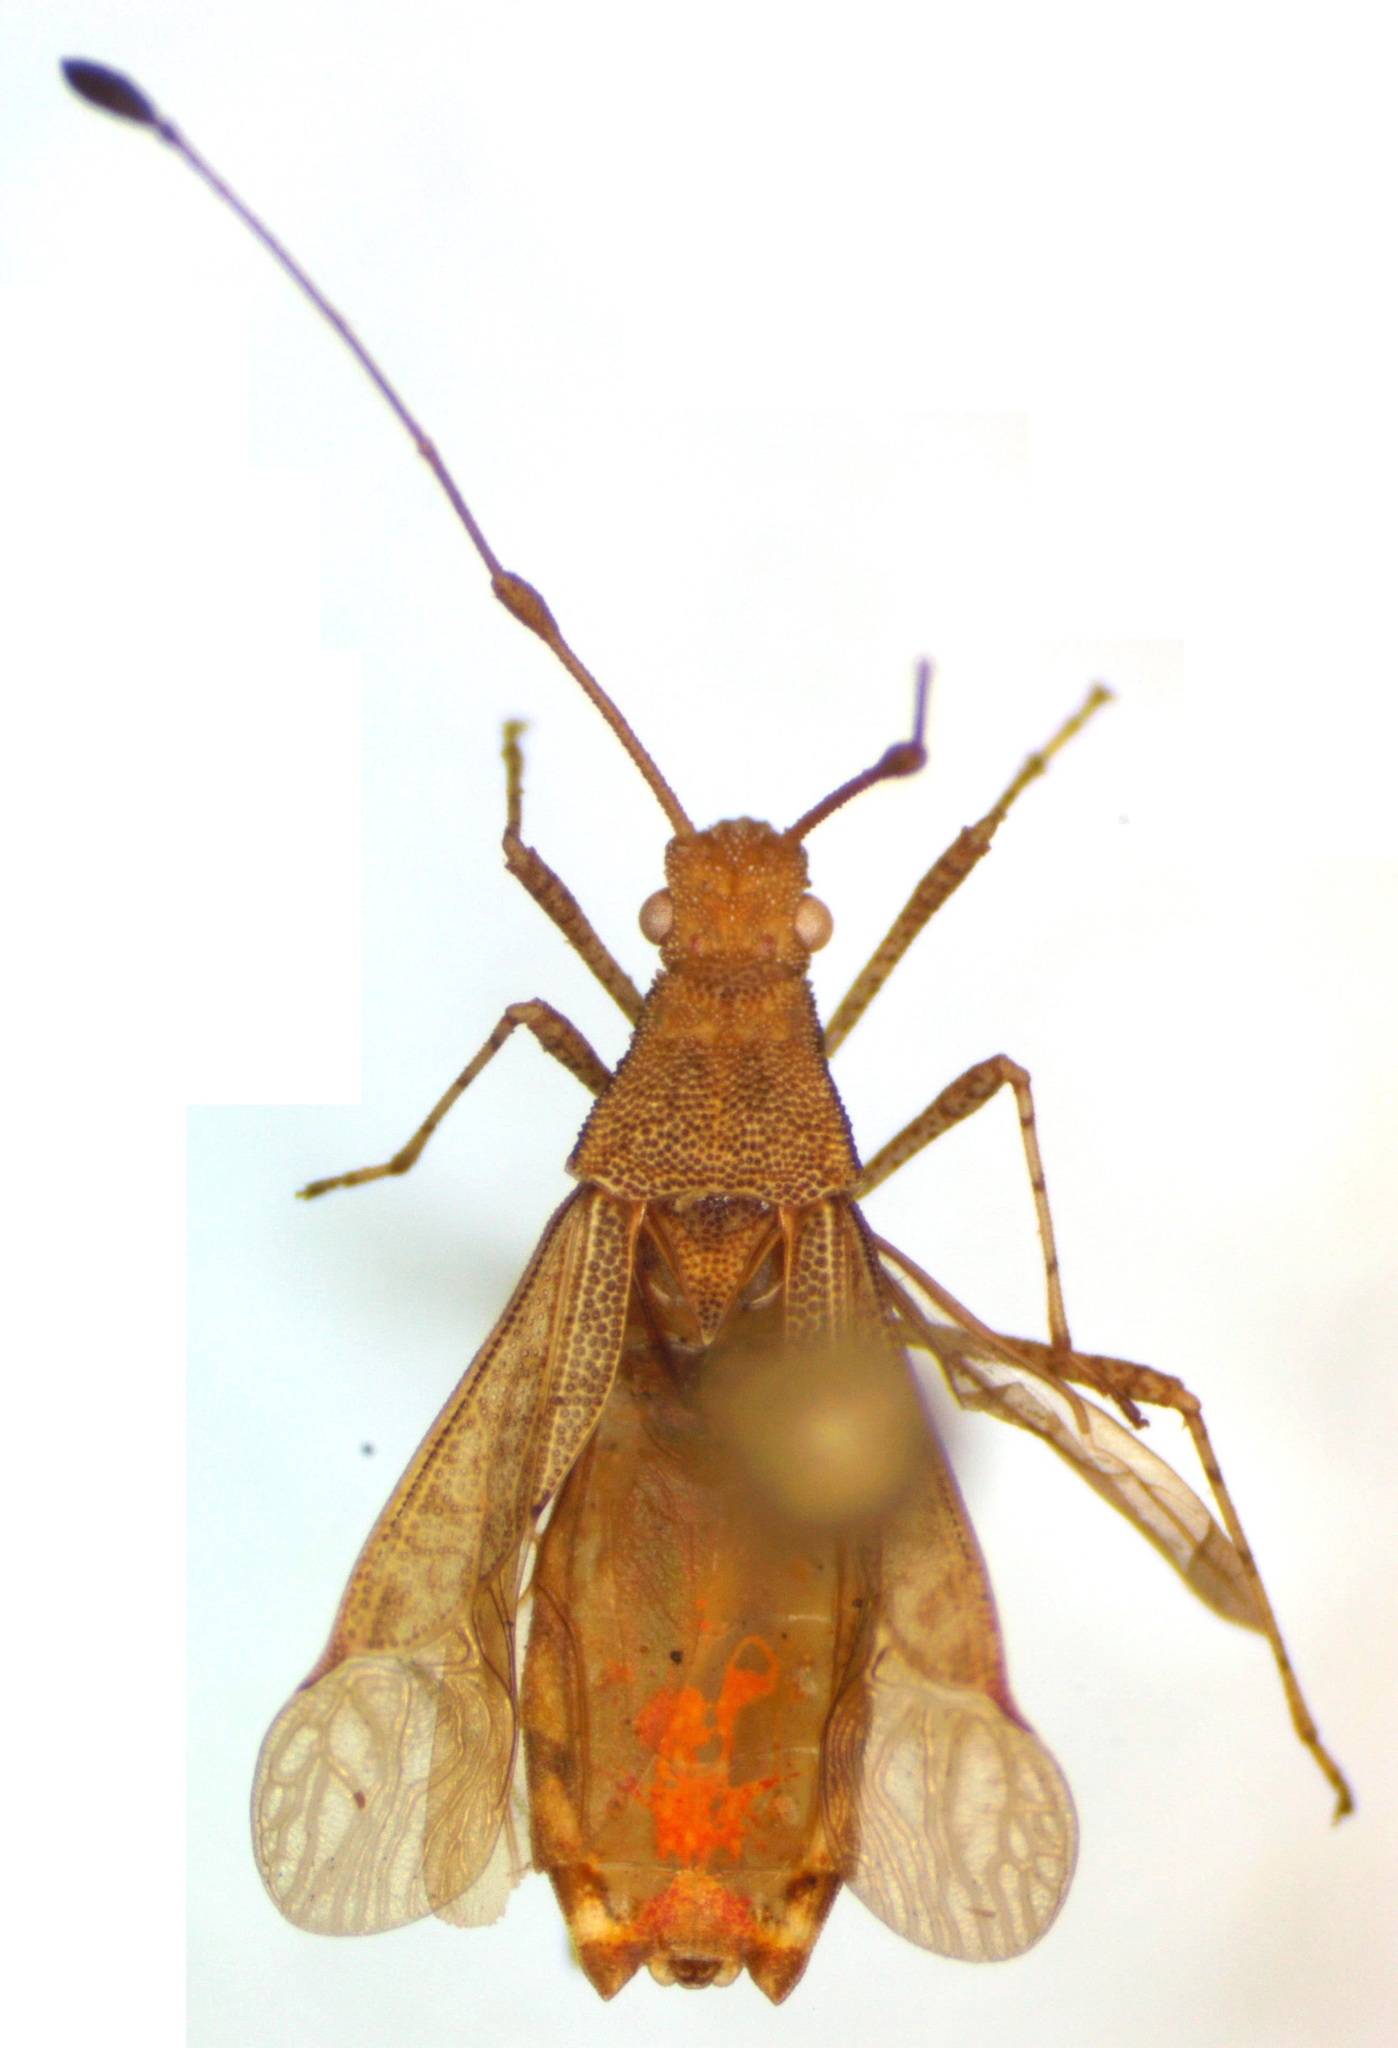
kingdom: Animalia
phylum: Arthropoda
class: Insecta
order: Hemiptera
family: Coreidae
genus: Madura
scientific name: Madura perfida
